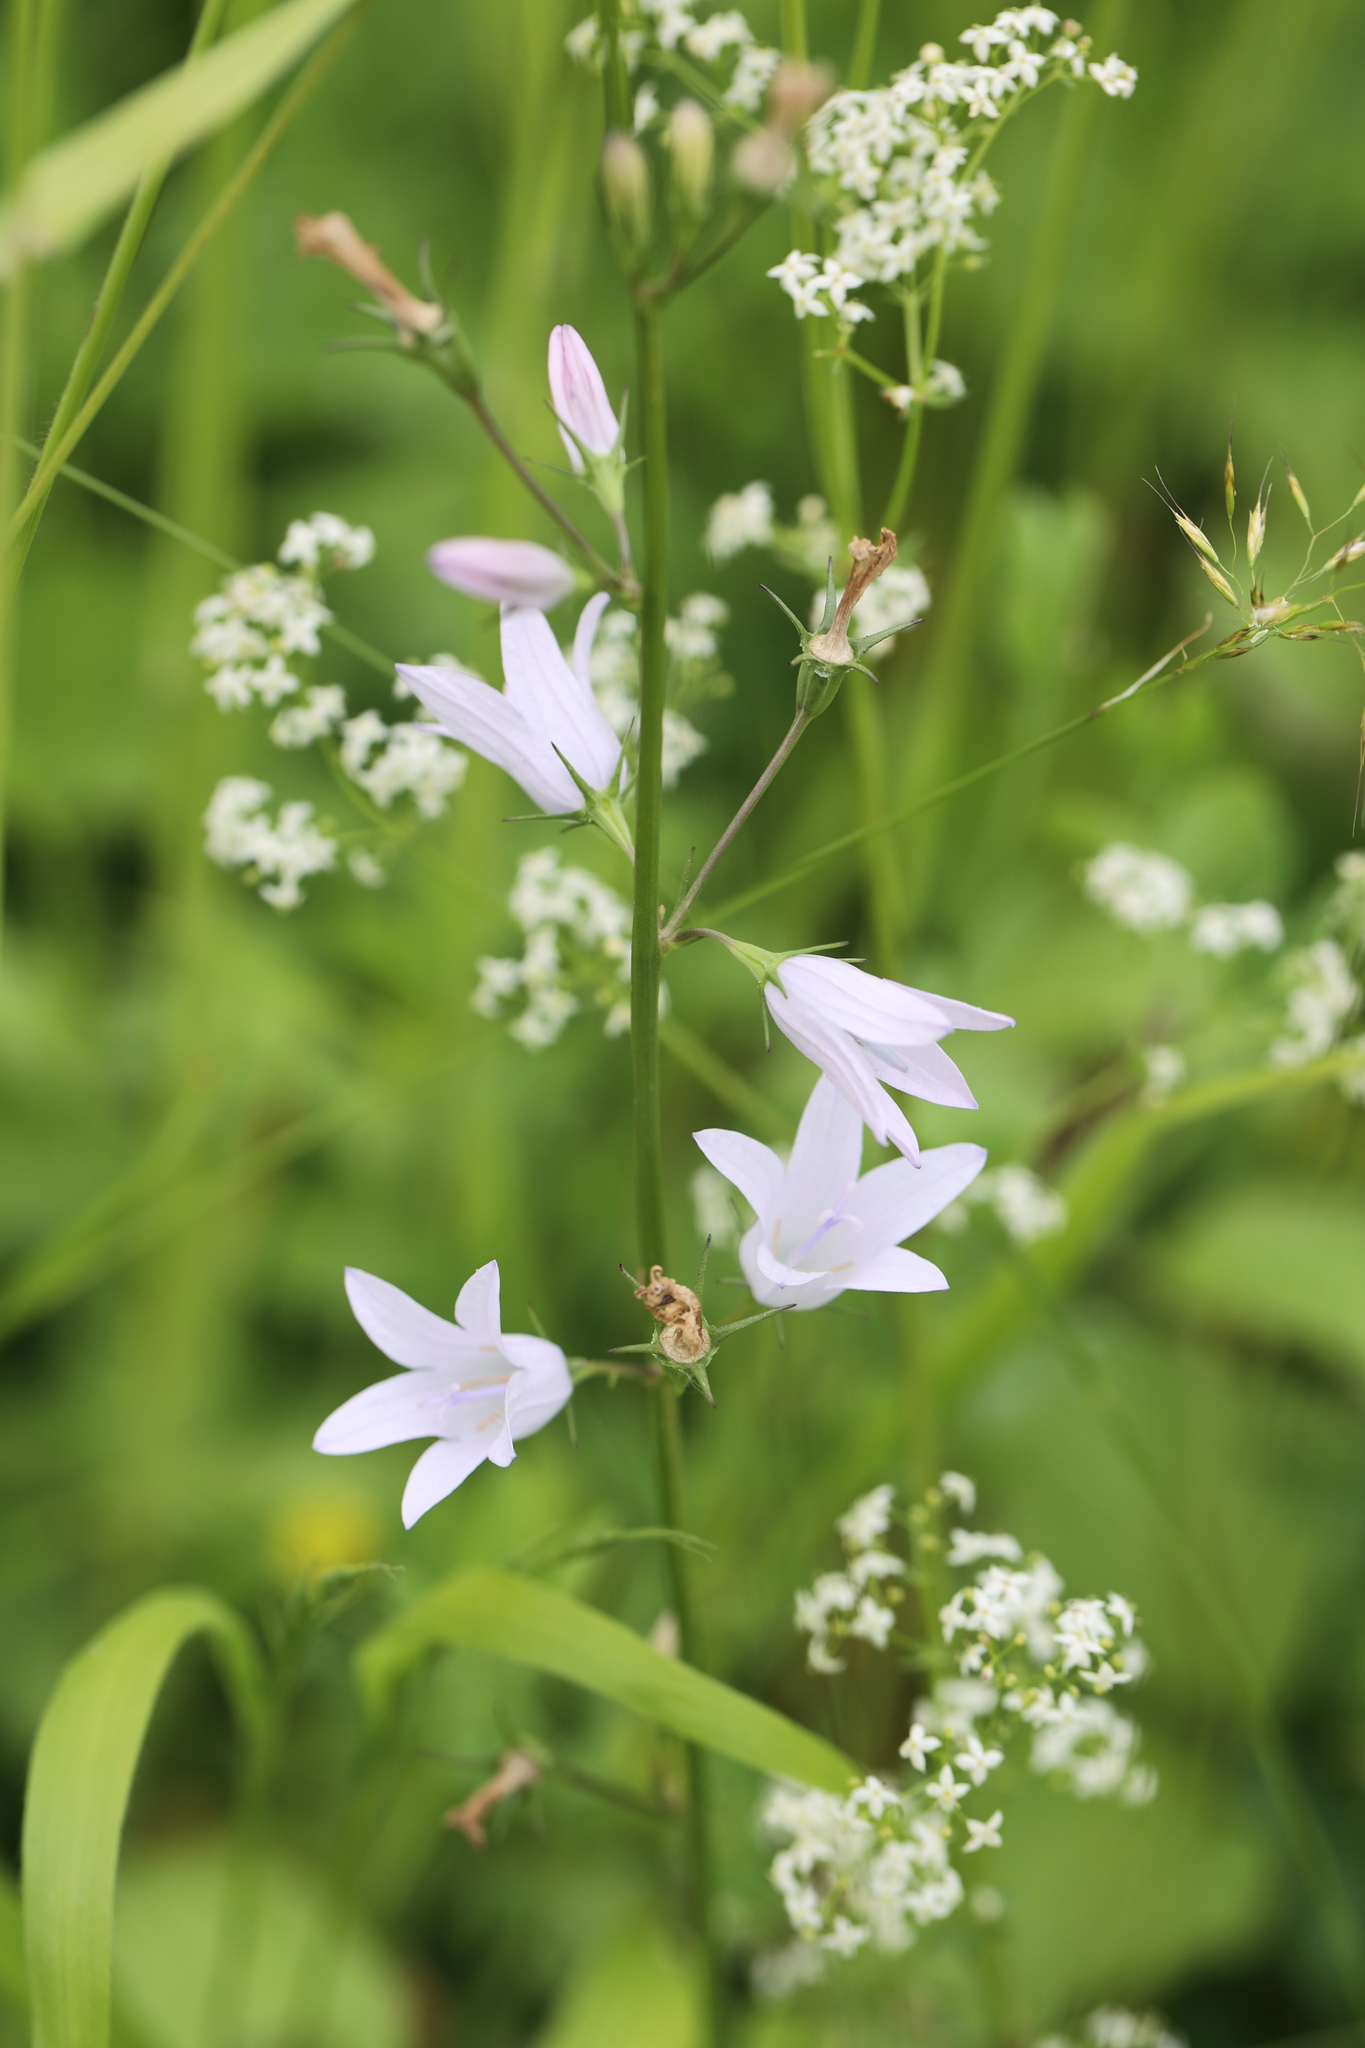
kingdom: Plantae
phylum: Tracheophyta
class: Magnoliopsida
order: Asterales
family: Campanulaceae
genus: Campanula
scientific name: Campanula rapunculus
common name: Rampion bellflower
